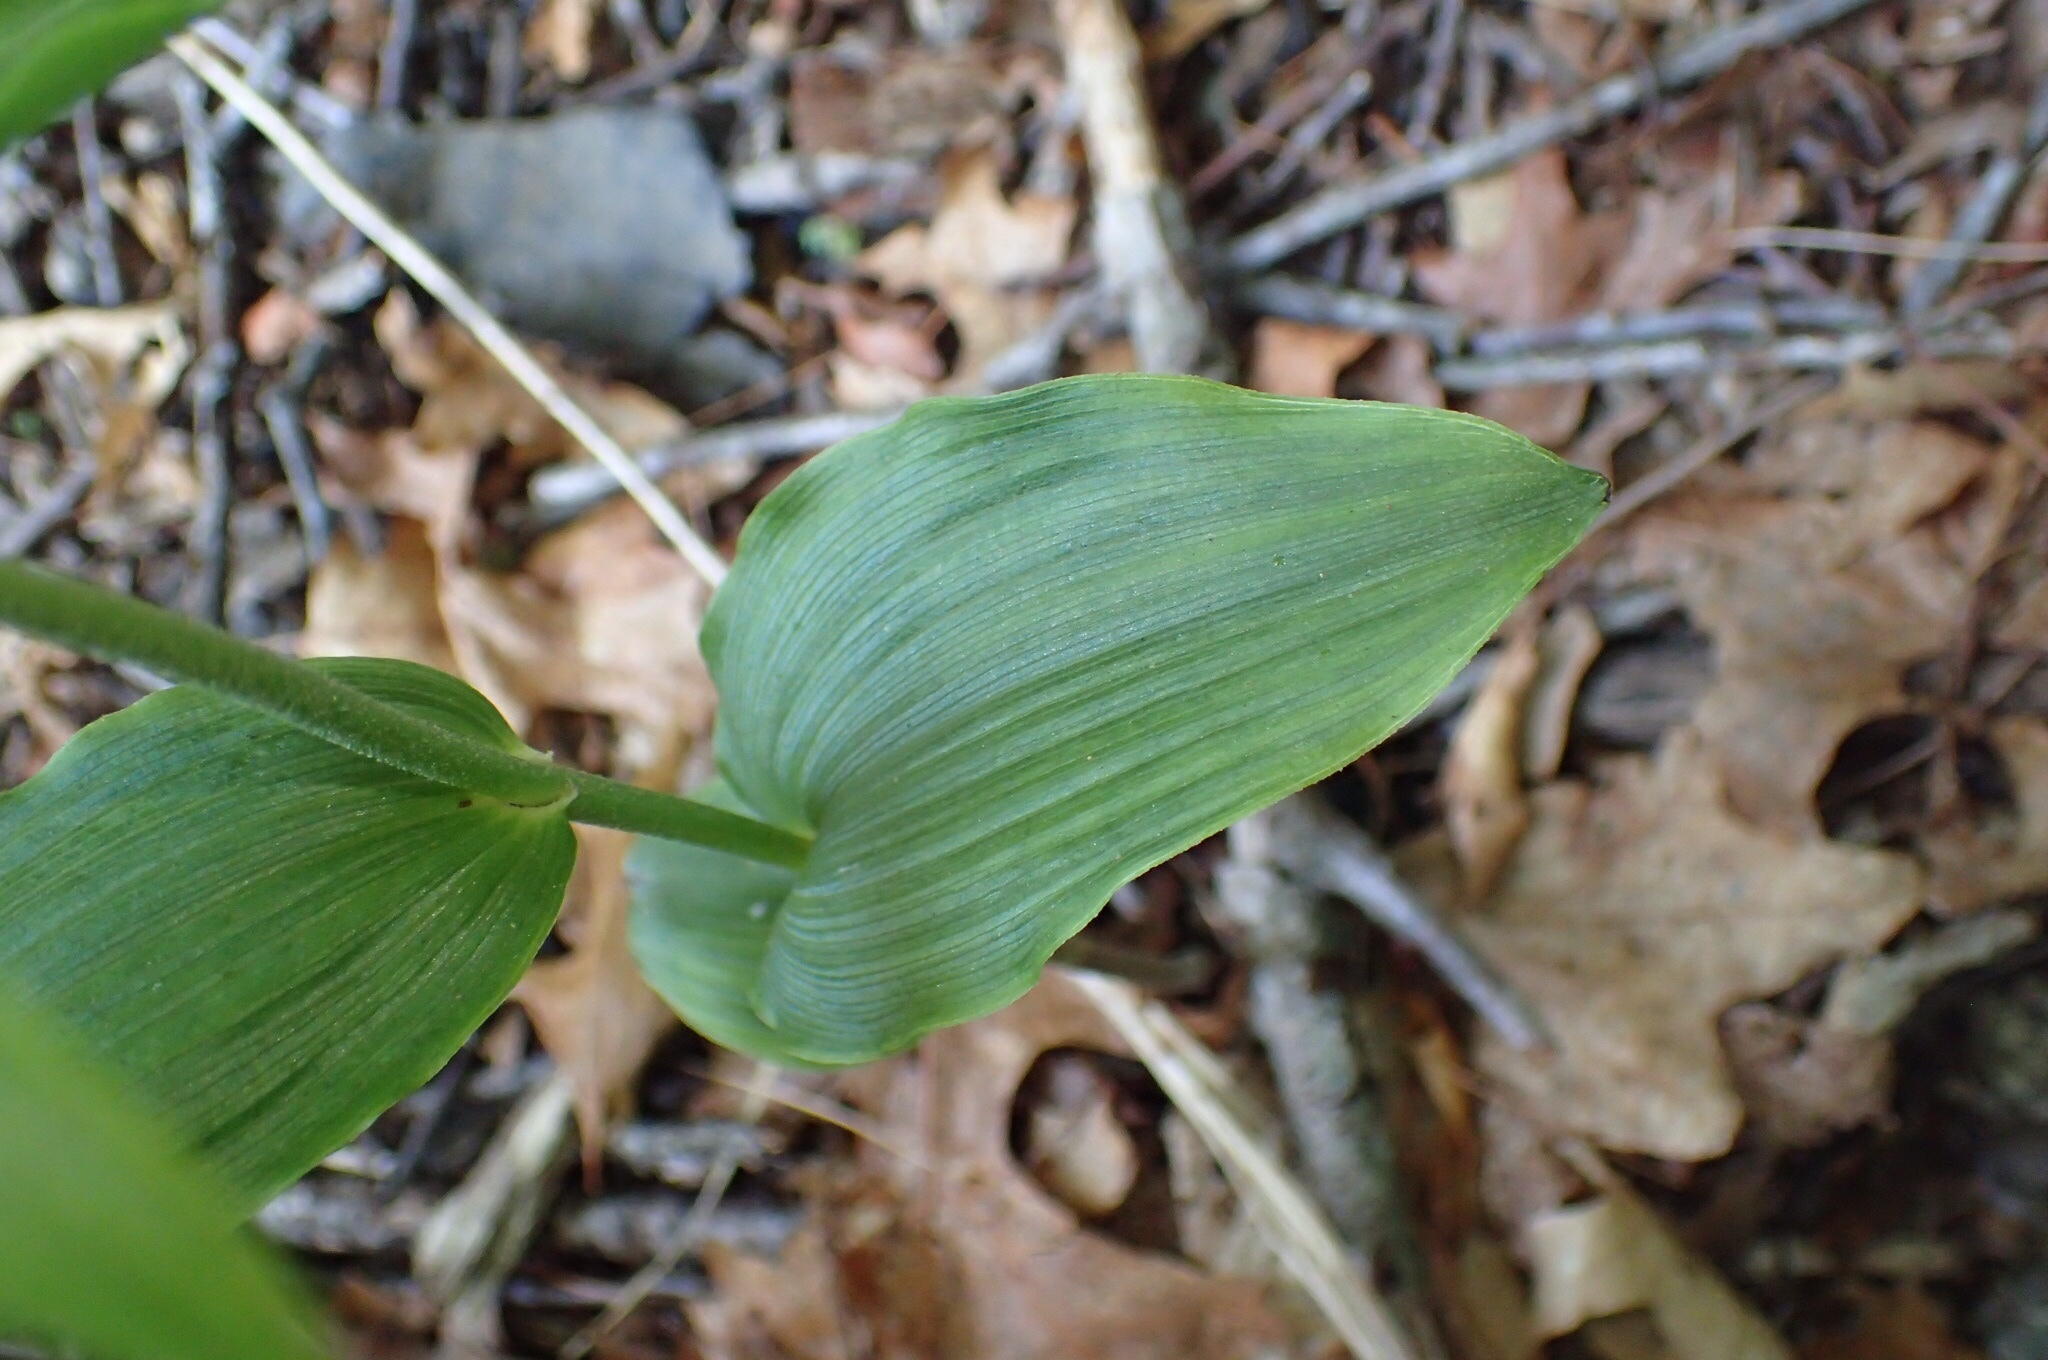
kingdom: Plantae
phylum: Tracheophyta
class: Liliopsida
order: Asparagales
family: Orchidaceae
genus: Epipactis
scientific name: Epipactis helleborine
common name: Broad-leaved helleborine
